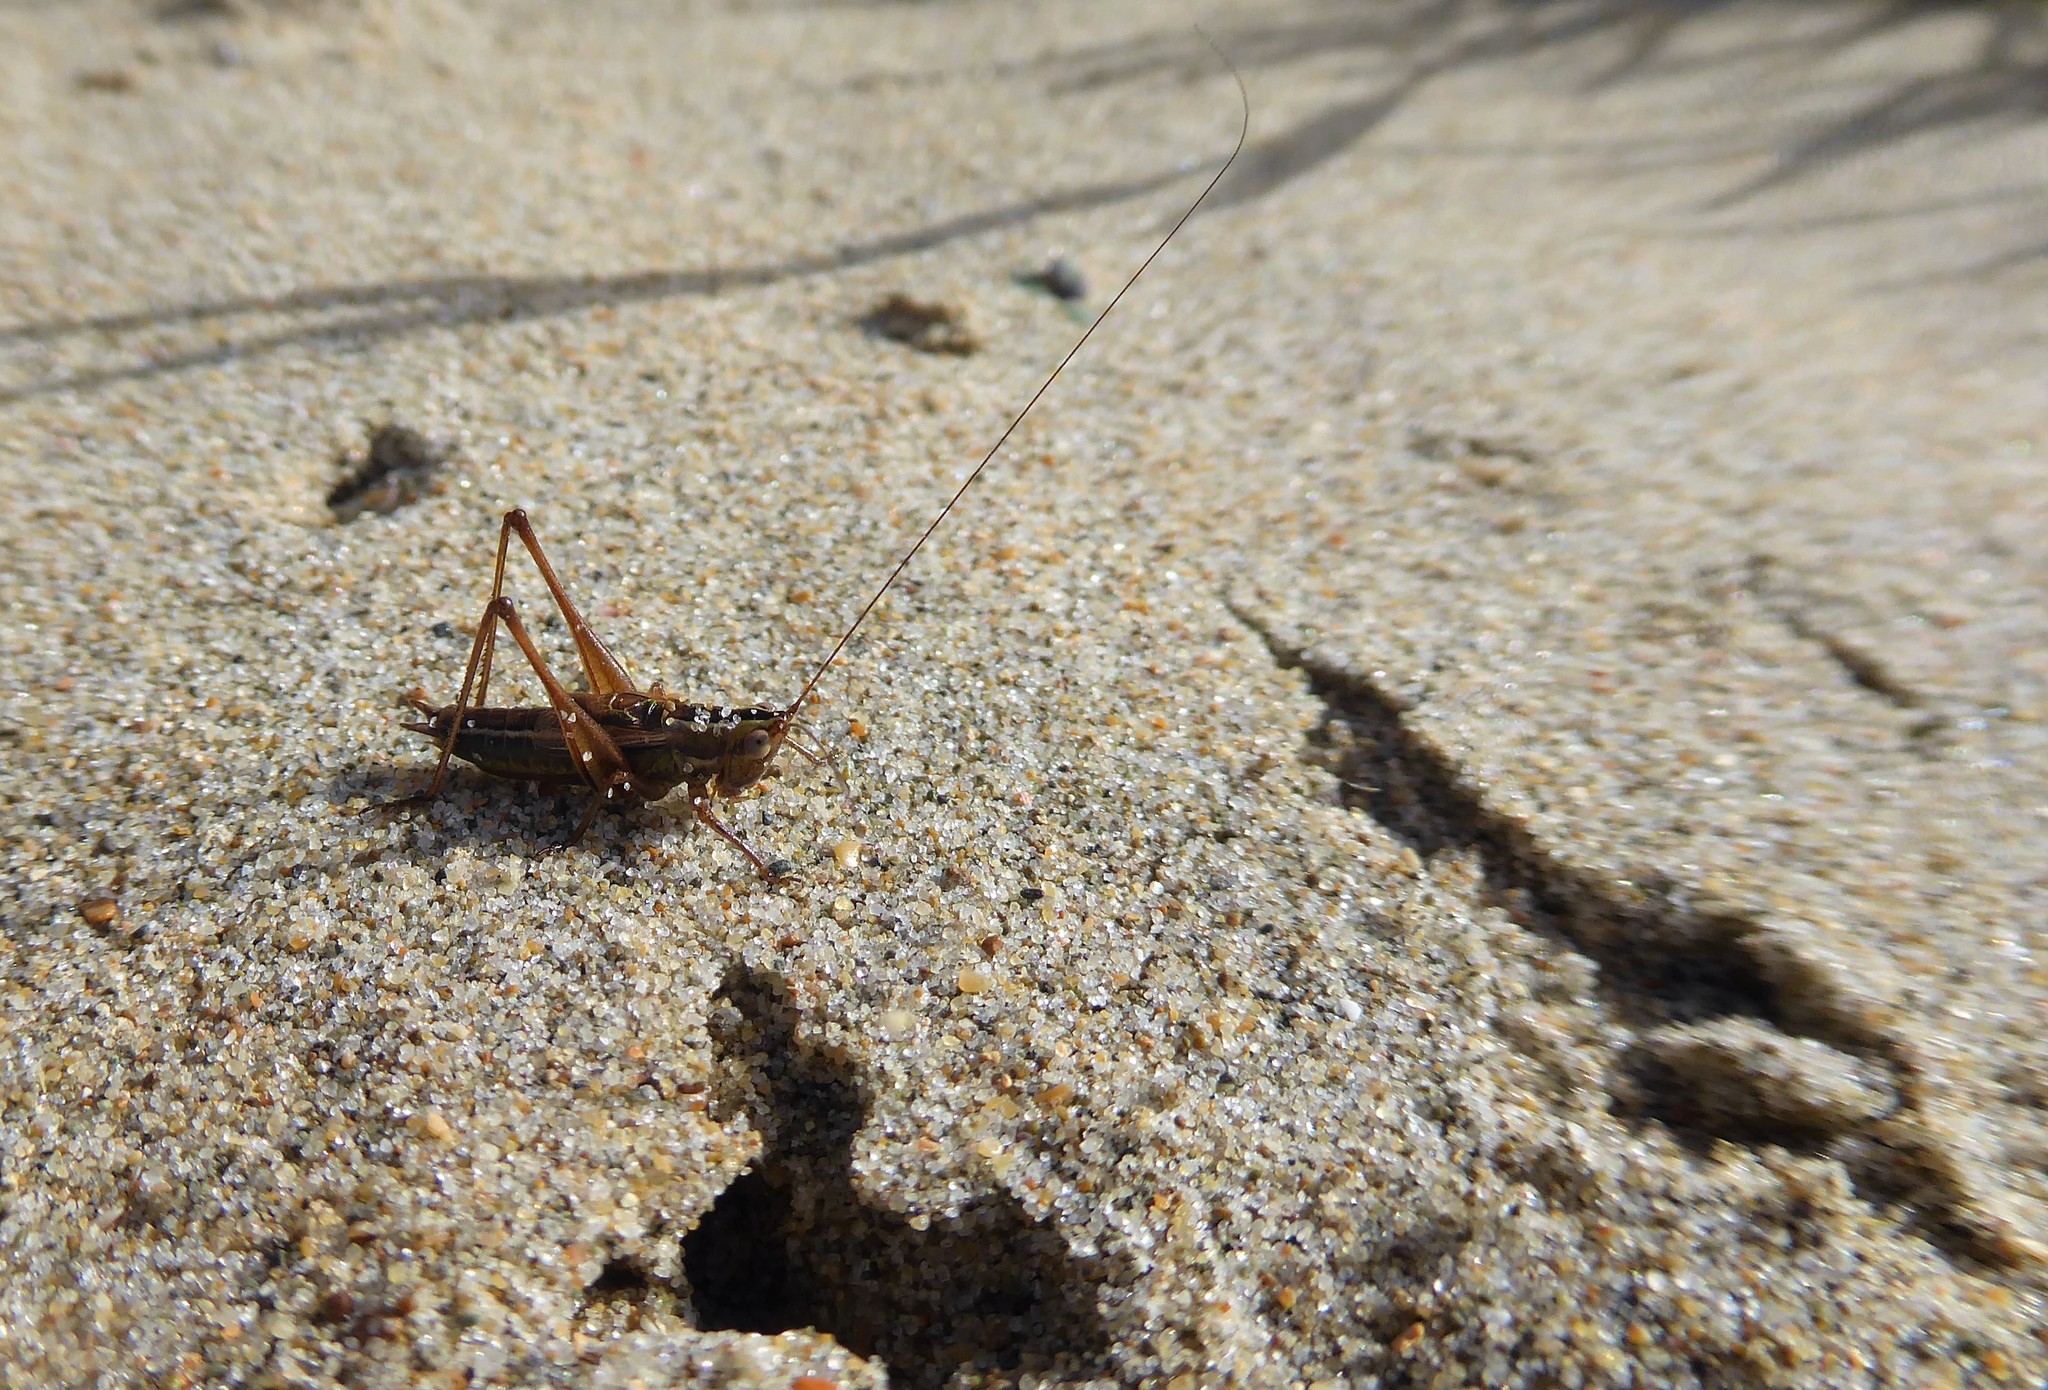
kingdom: Animalia
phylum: Arthropoda
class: Insecta
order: Orthoptera
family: Tettigoniidae
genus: Conocephalus
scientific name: Conocephalus bilineatus
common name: Small meadow katydid
